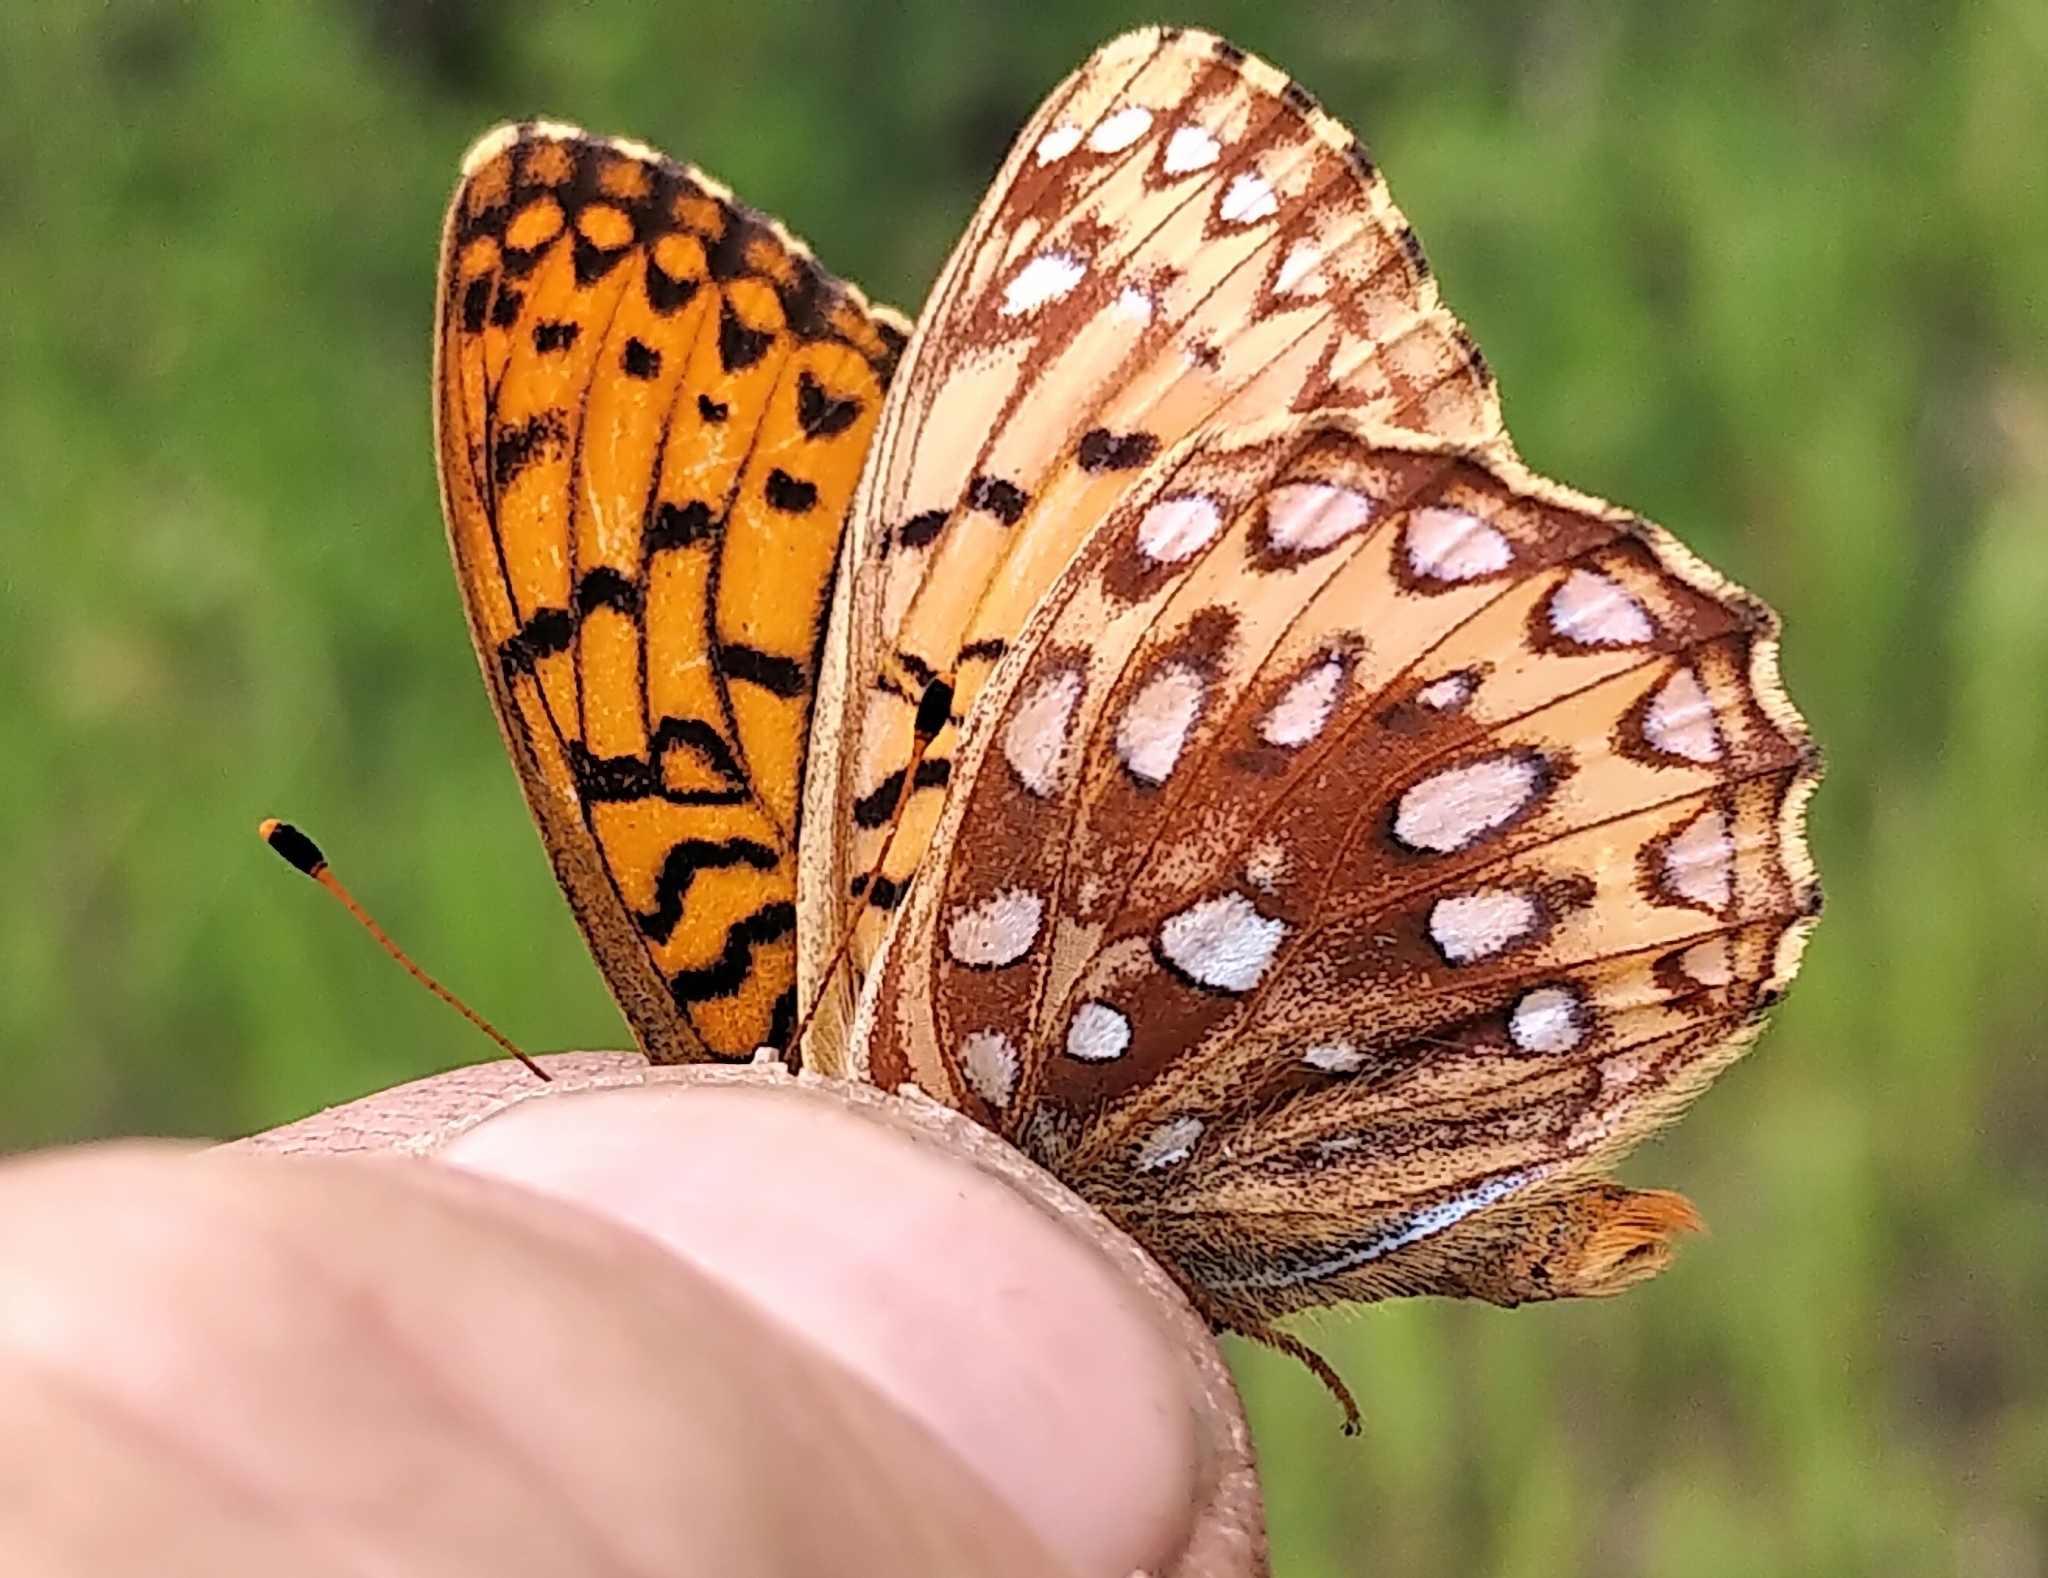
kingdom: Animalia
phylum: Arthropoda
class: Insecta
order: Lepidoptera
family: Nymphalidae
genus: Speyeria
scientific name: Speyeria aphrodite
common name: Aphrodite friitllary
